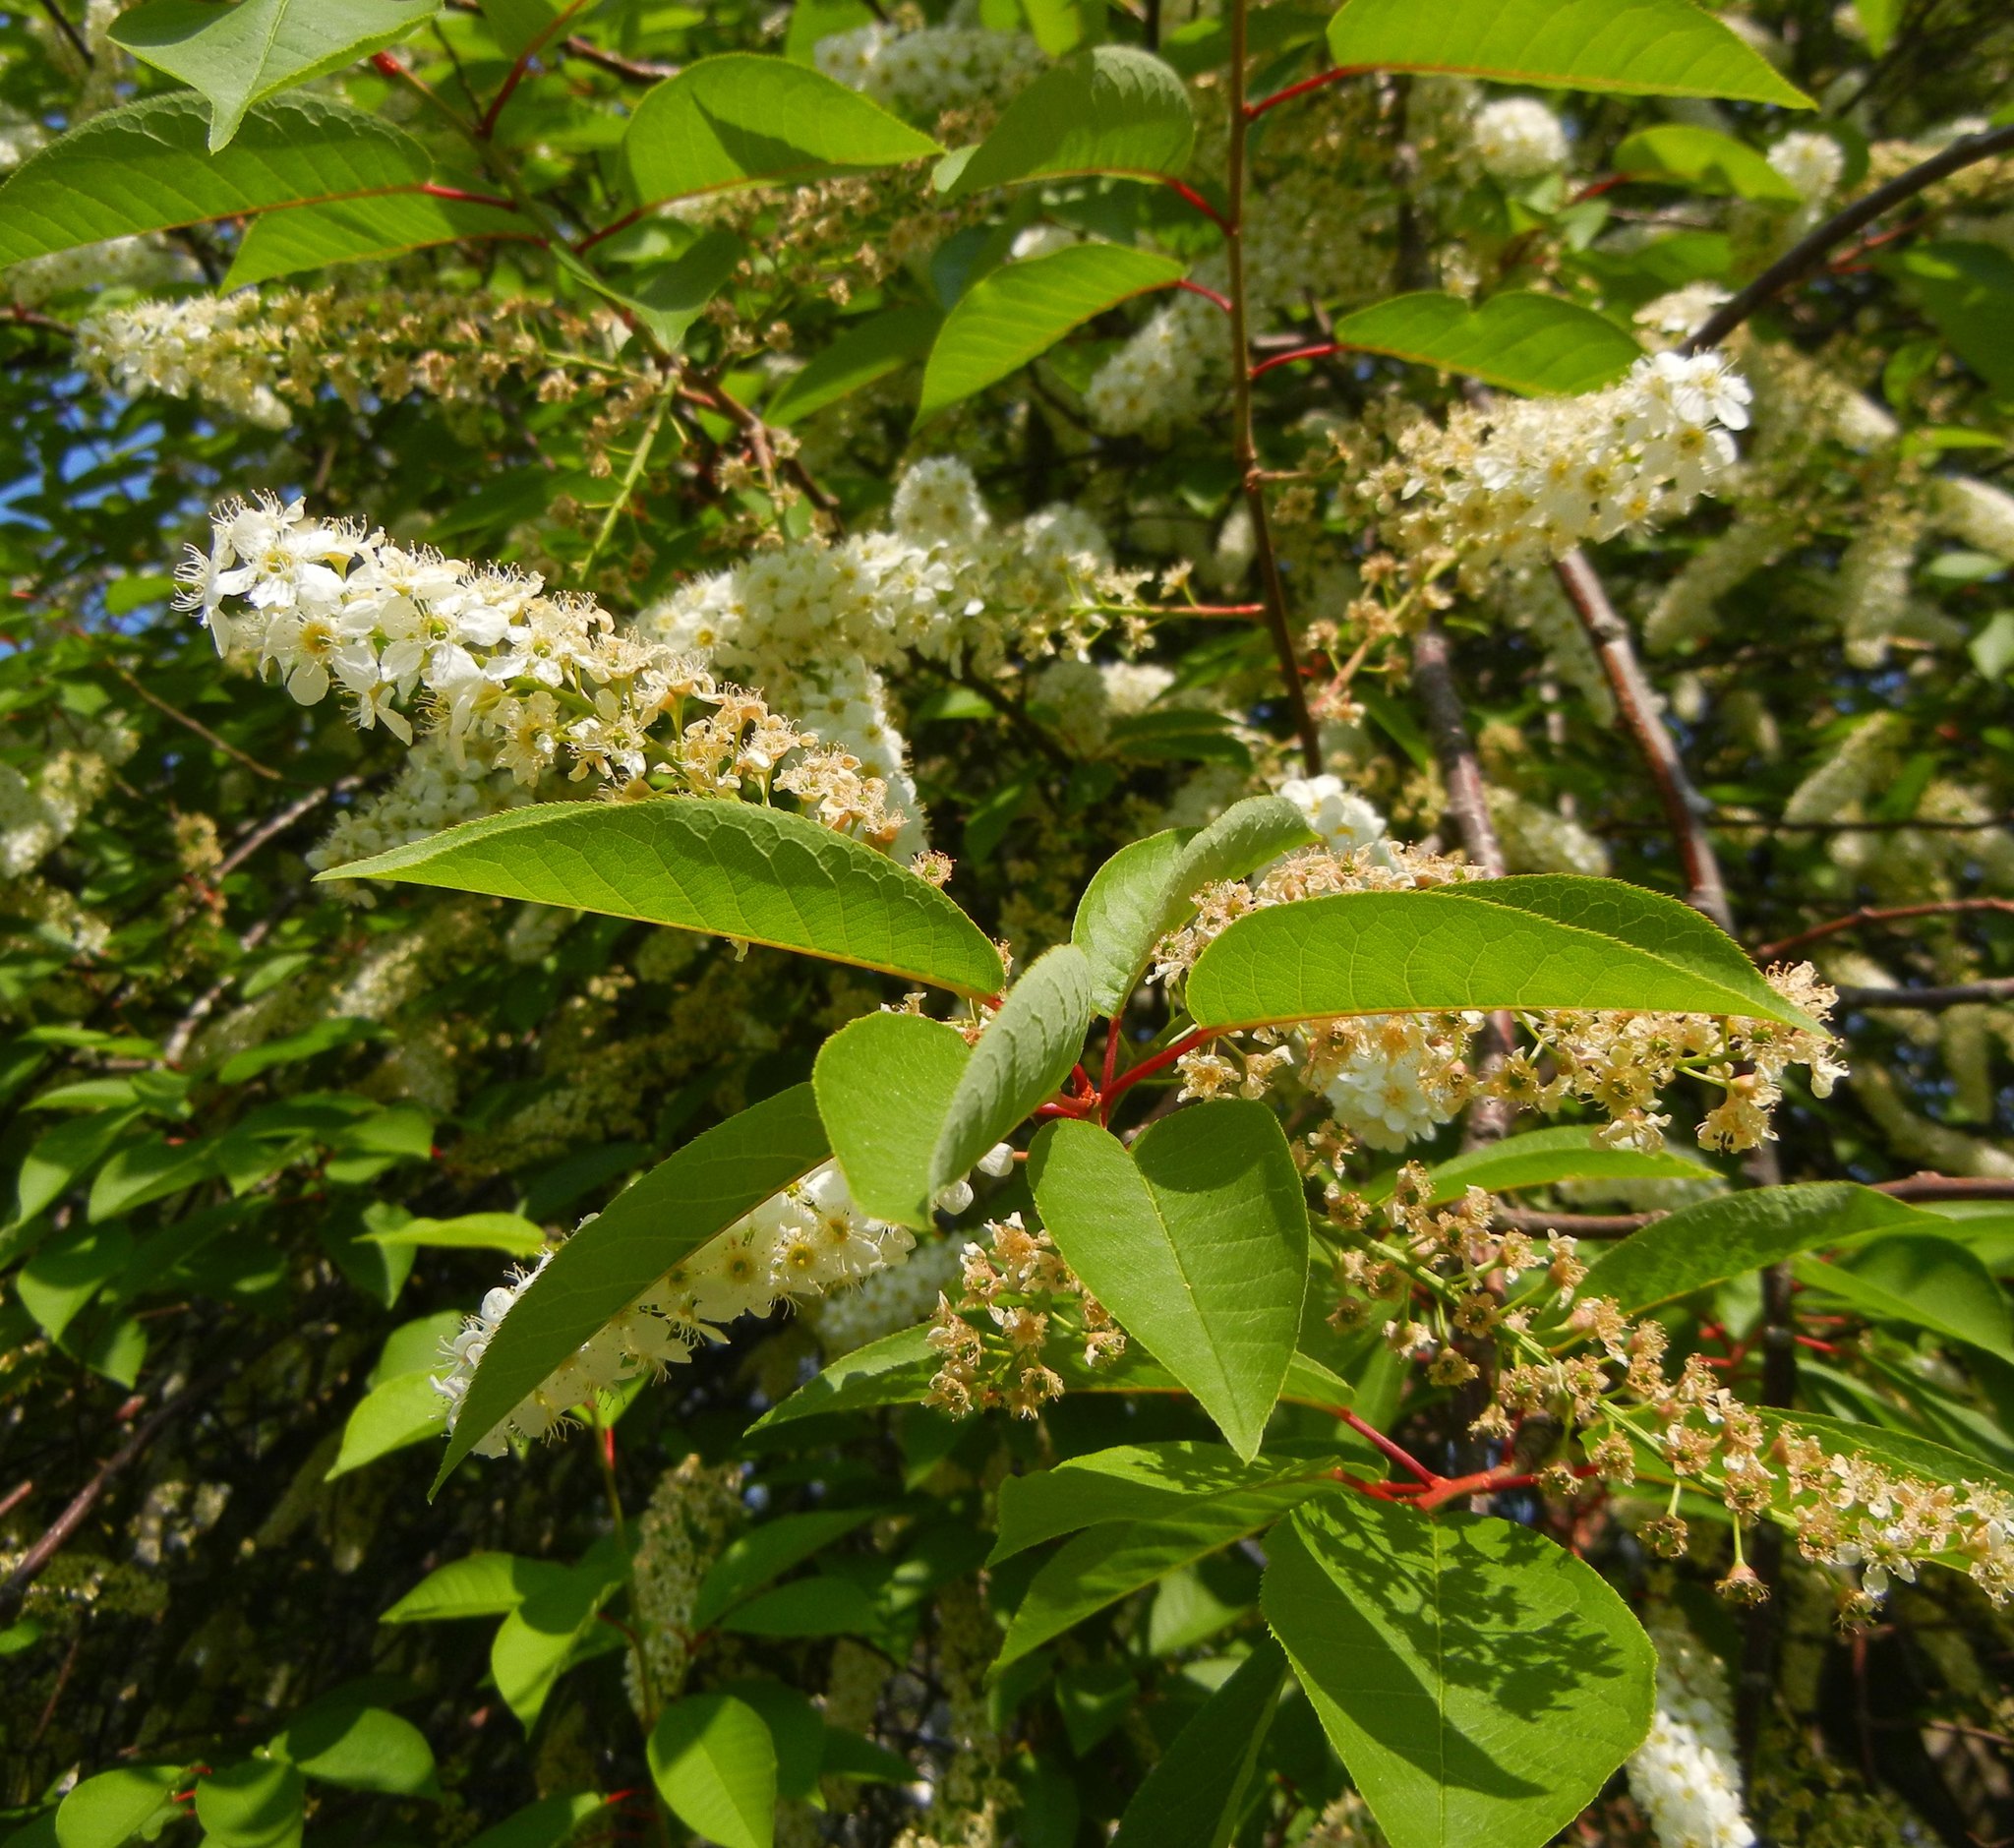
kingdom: Plantae
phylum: Tracheophyta
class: Magnoliopsida
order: Rosales
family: Rosaceae
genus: Prunus
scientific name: Prunus padus
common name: Bird cherry
